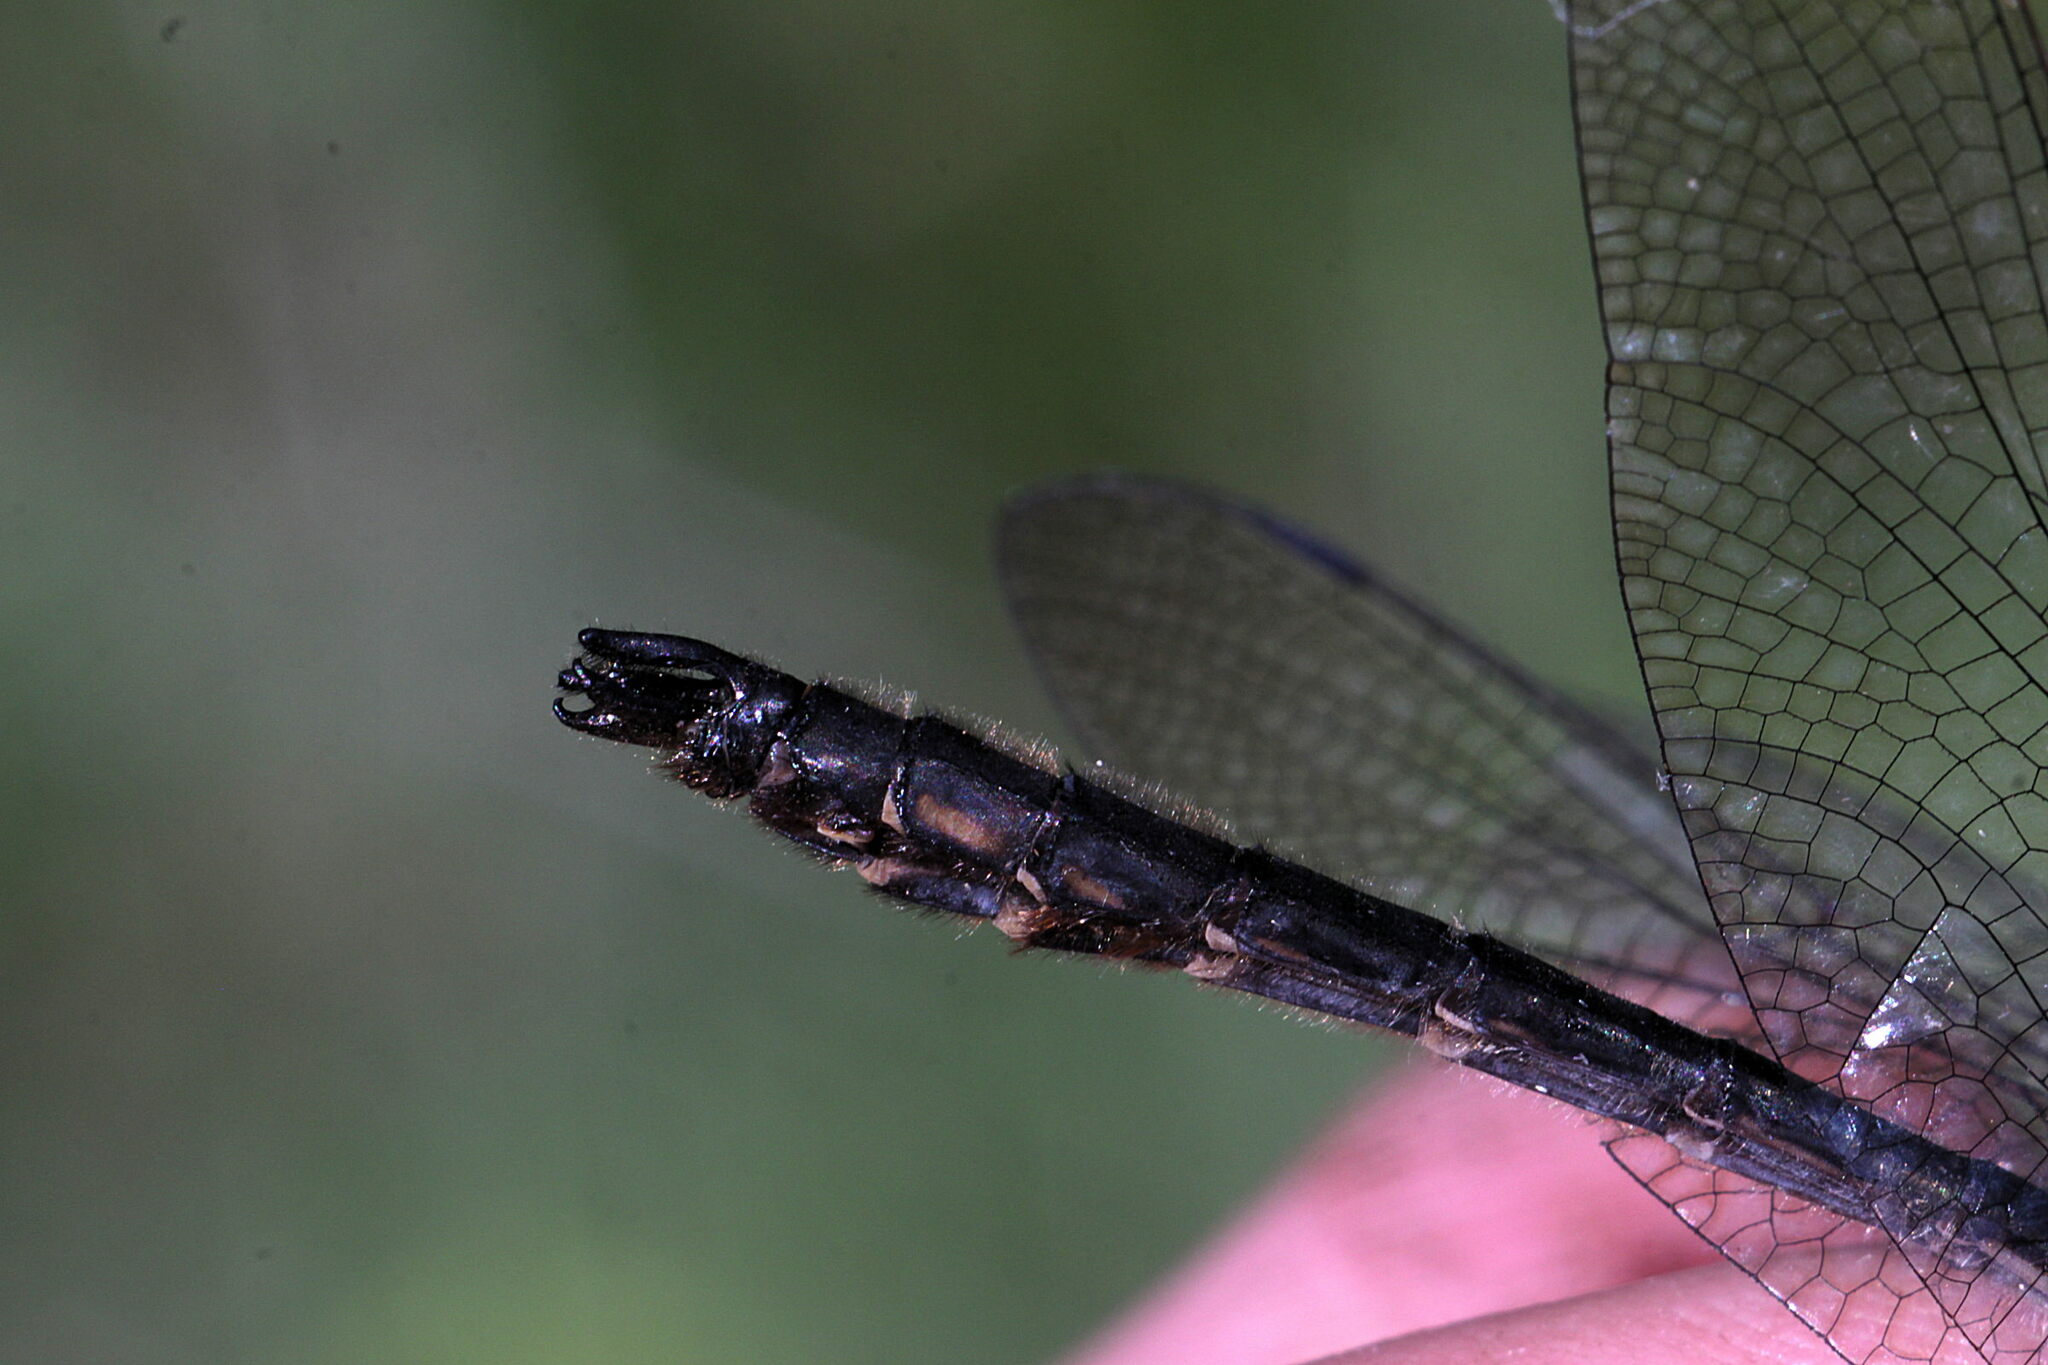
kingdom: Animalia
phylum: Arthropoda
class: Insecta
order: Odonata
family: Corduliidae
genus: Cordulia
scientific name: Cordulia aenea
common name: Downy emerald
